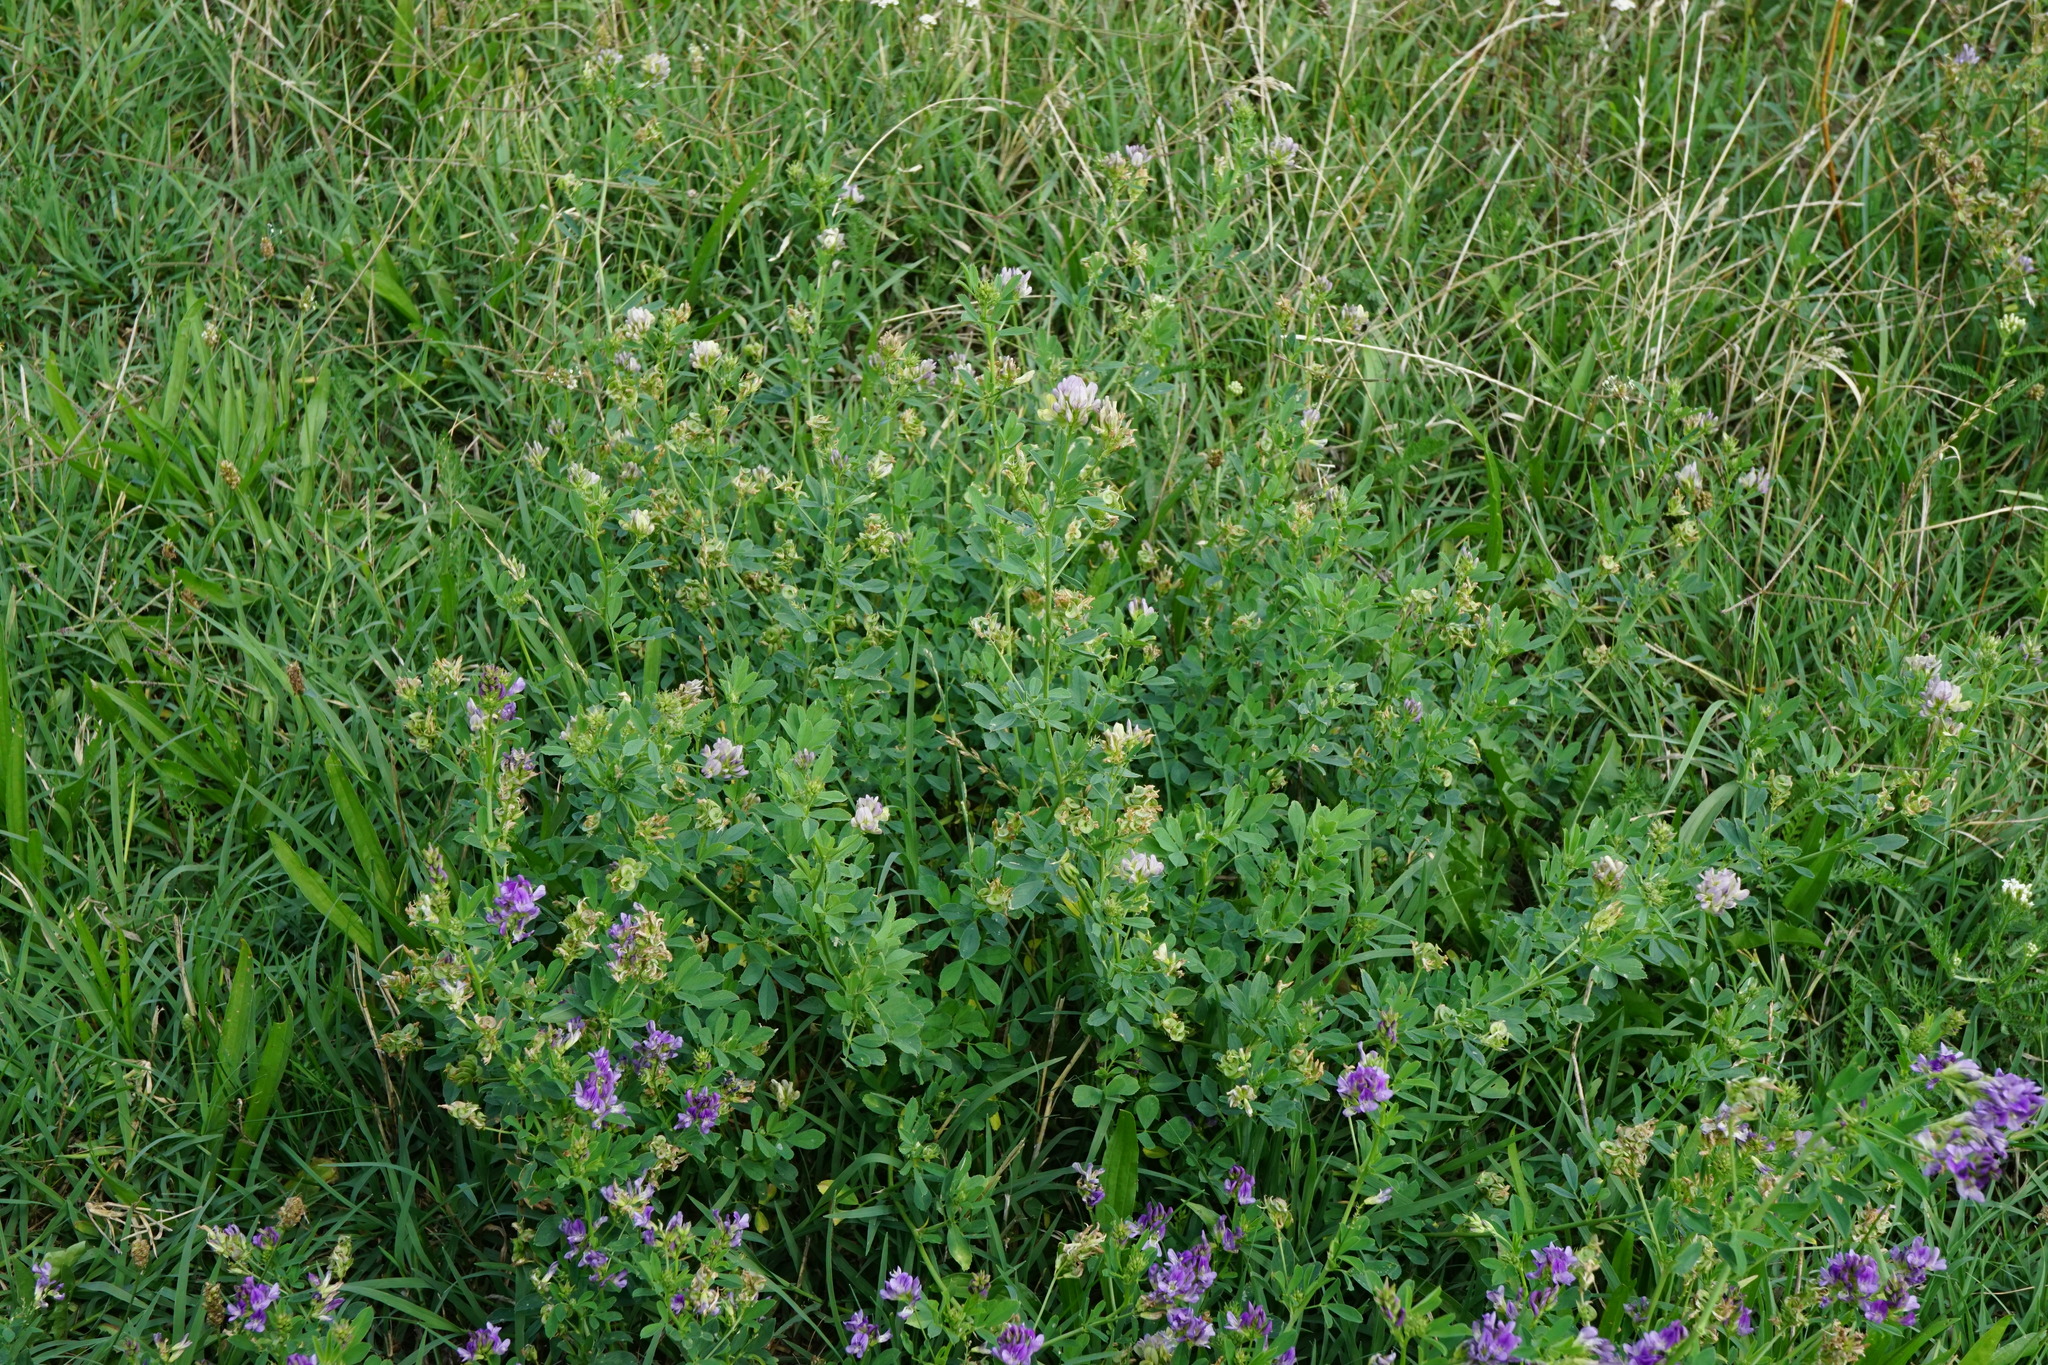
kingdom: Plantae
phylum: Tracheophyta
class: Magnoliopsida
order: Fabales
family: Fabaceae
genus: Medicago
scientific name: Medicago varia
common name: Sand lucerne
